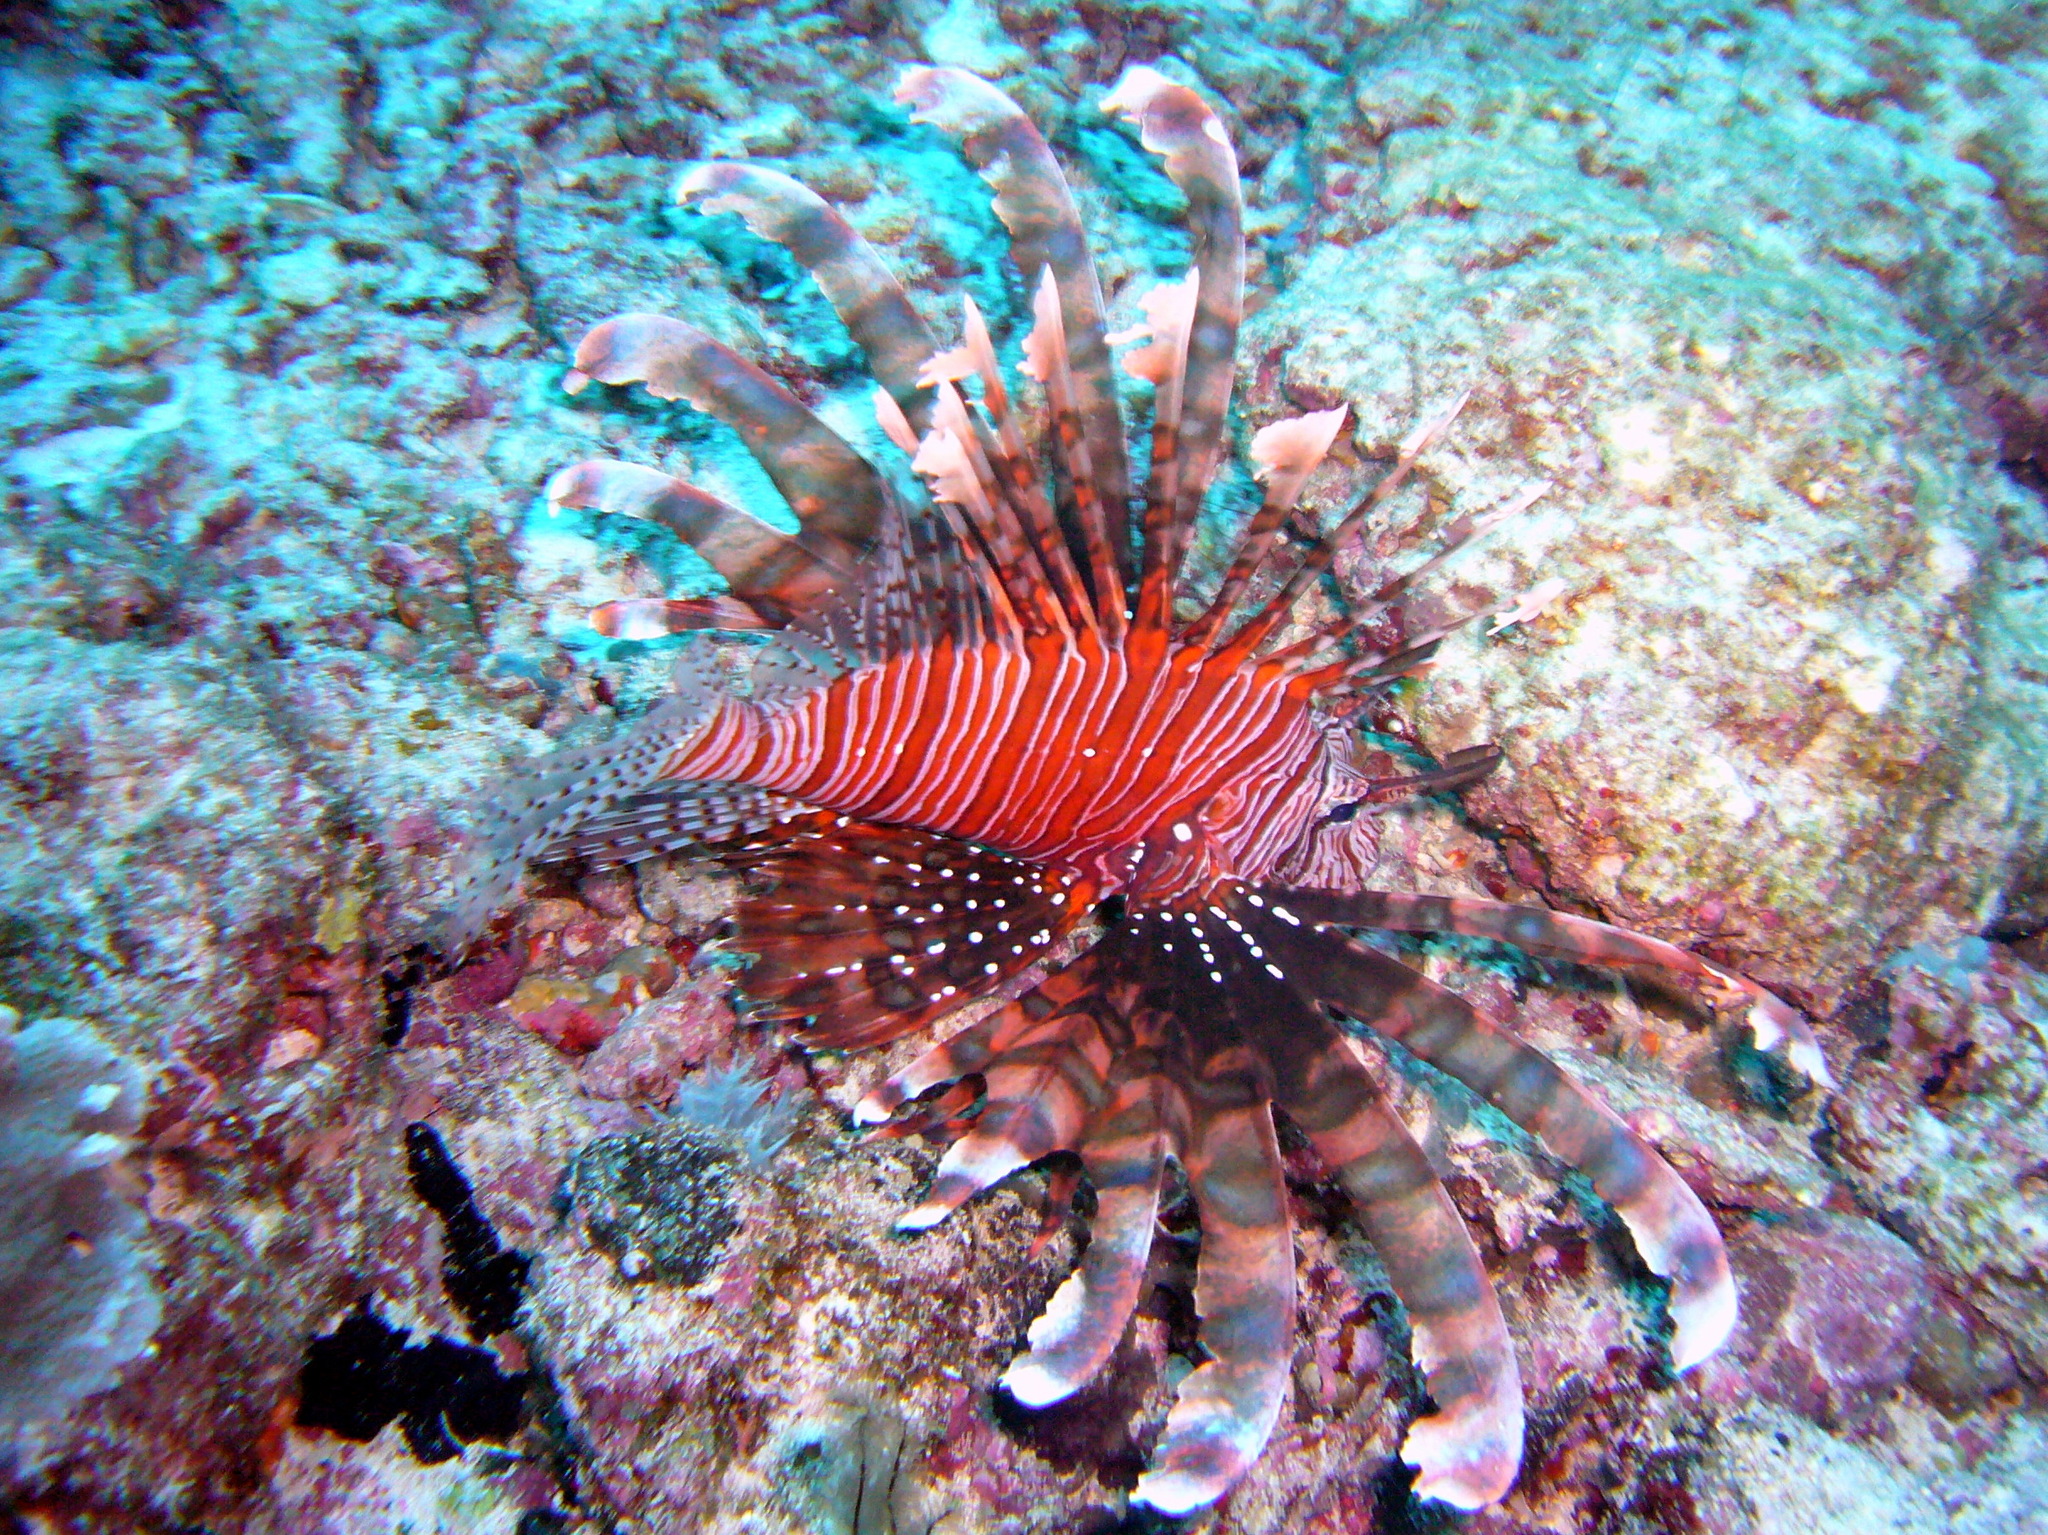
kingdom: Animalia
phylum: Chordata
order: Scorpaeniformes
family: Scorpaenidae
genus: Pterois
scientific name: Pterois volitans
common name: Lionfish
